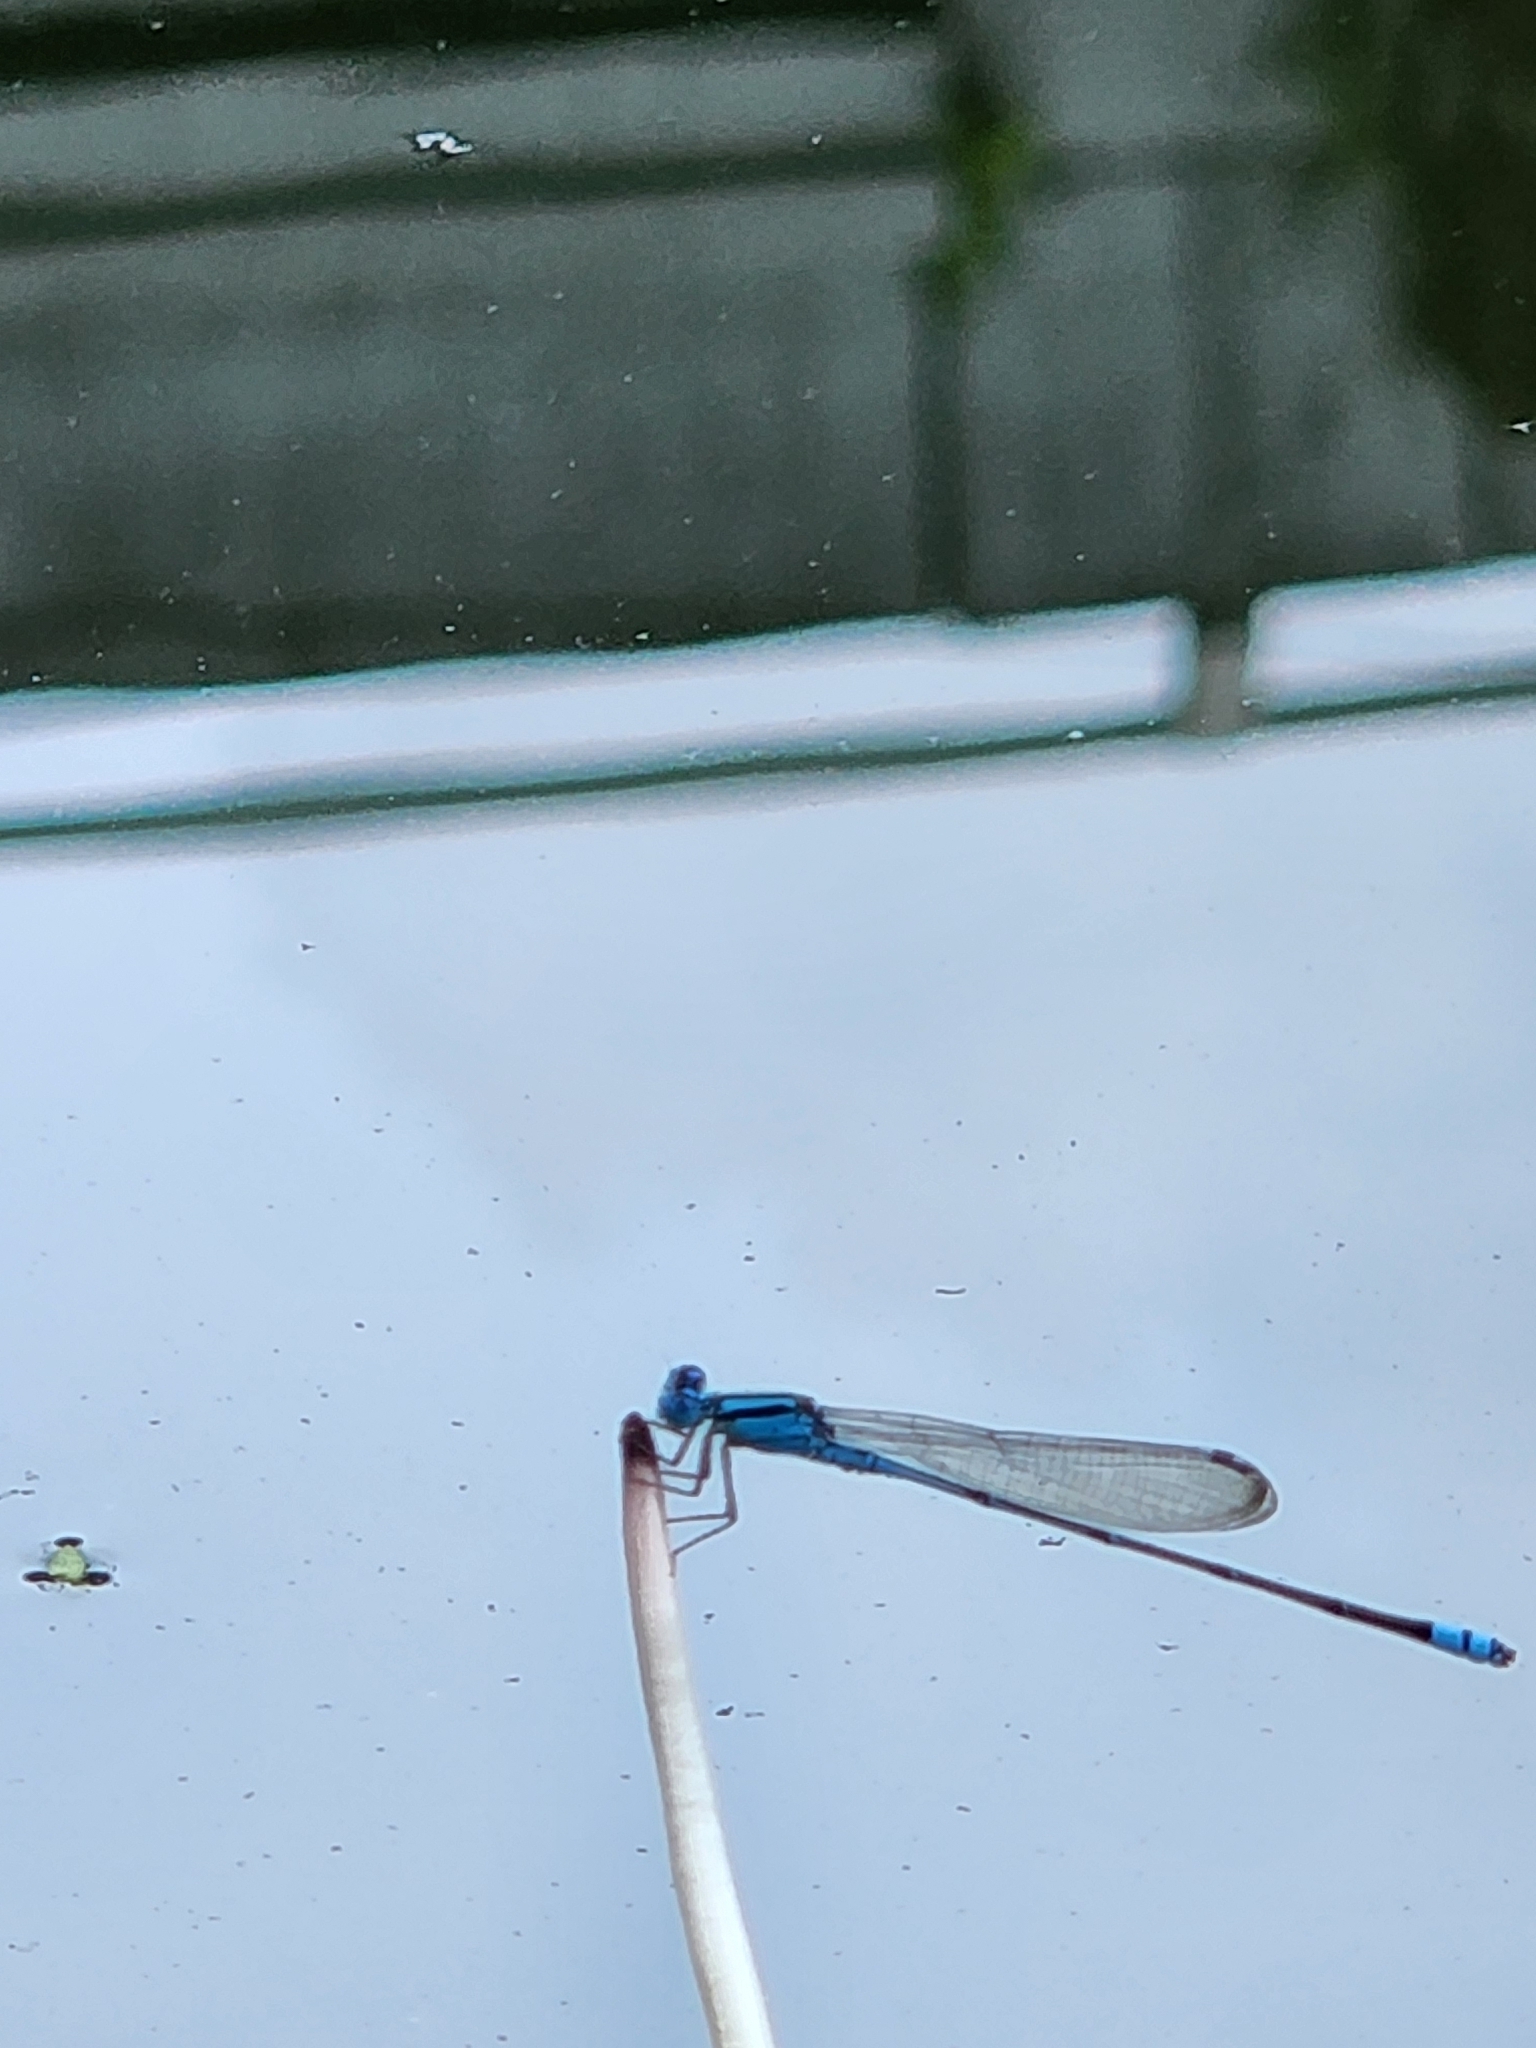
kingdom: Animalia
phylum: Arthropoda
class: Insecta
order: Odonata
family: Coenagrionidae
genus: Pseudagrion
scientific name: Pseudagrion microcephalum
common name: Blue riverdamsel
